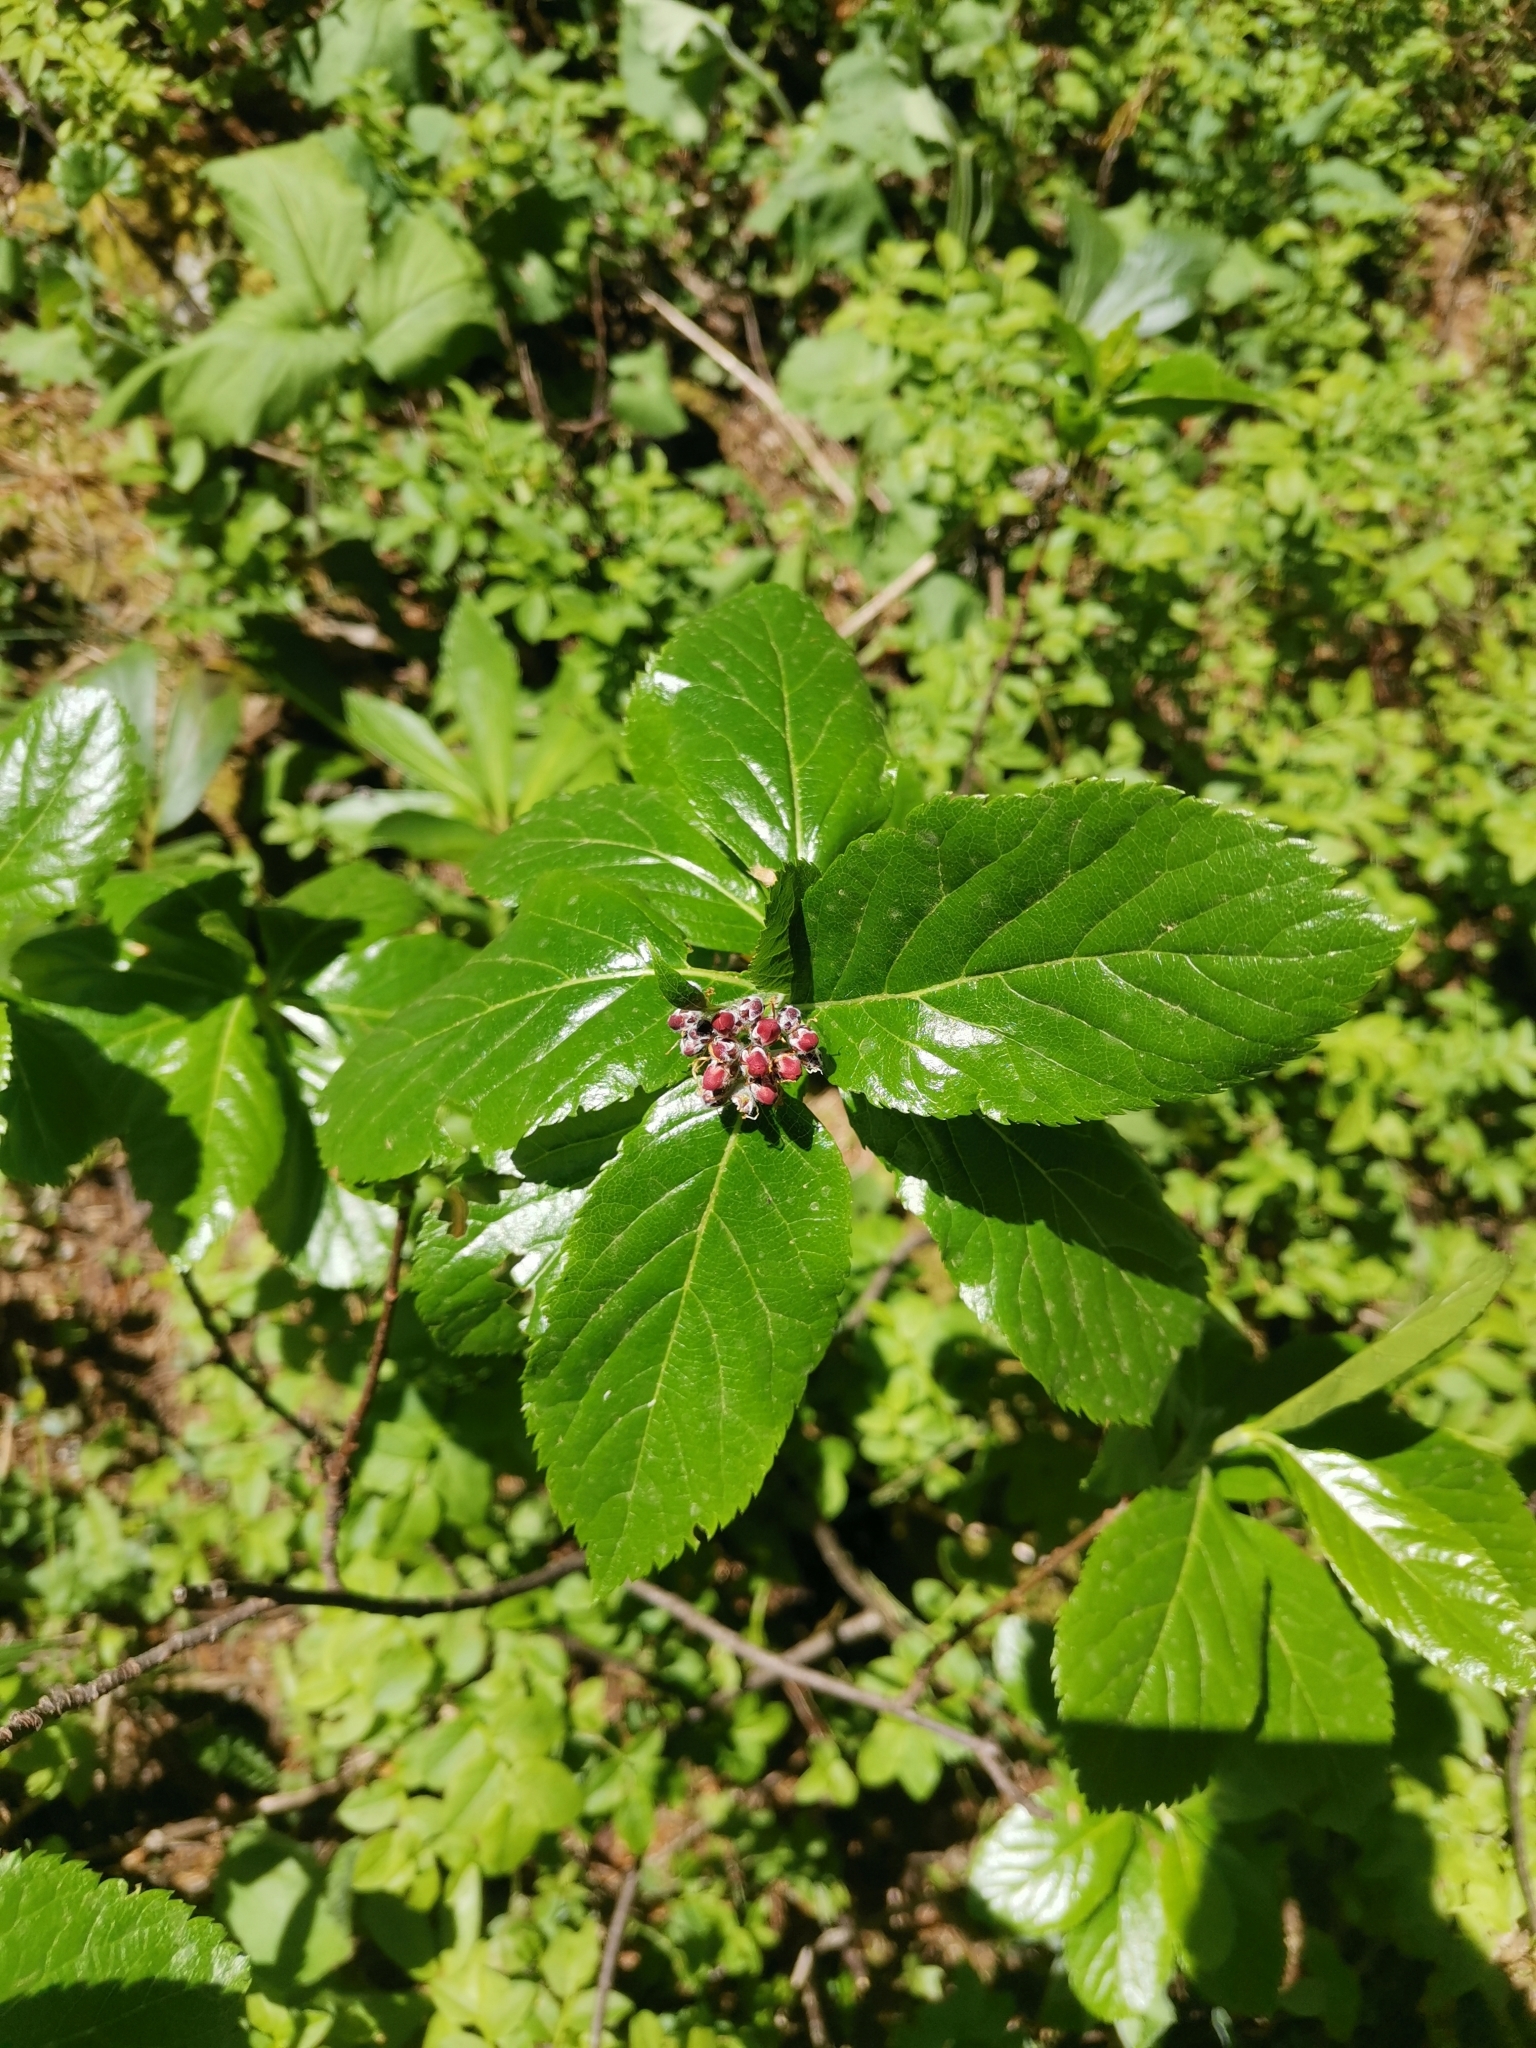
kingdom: Plantae
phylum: Tracheophyta
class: Magnoliopsida
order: Rosales
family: Rosaceae
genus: Chamaemespilus
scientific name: Chamaemespilus alpina
